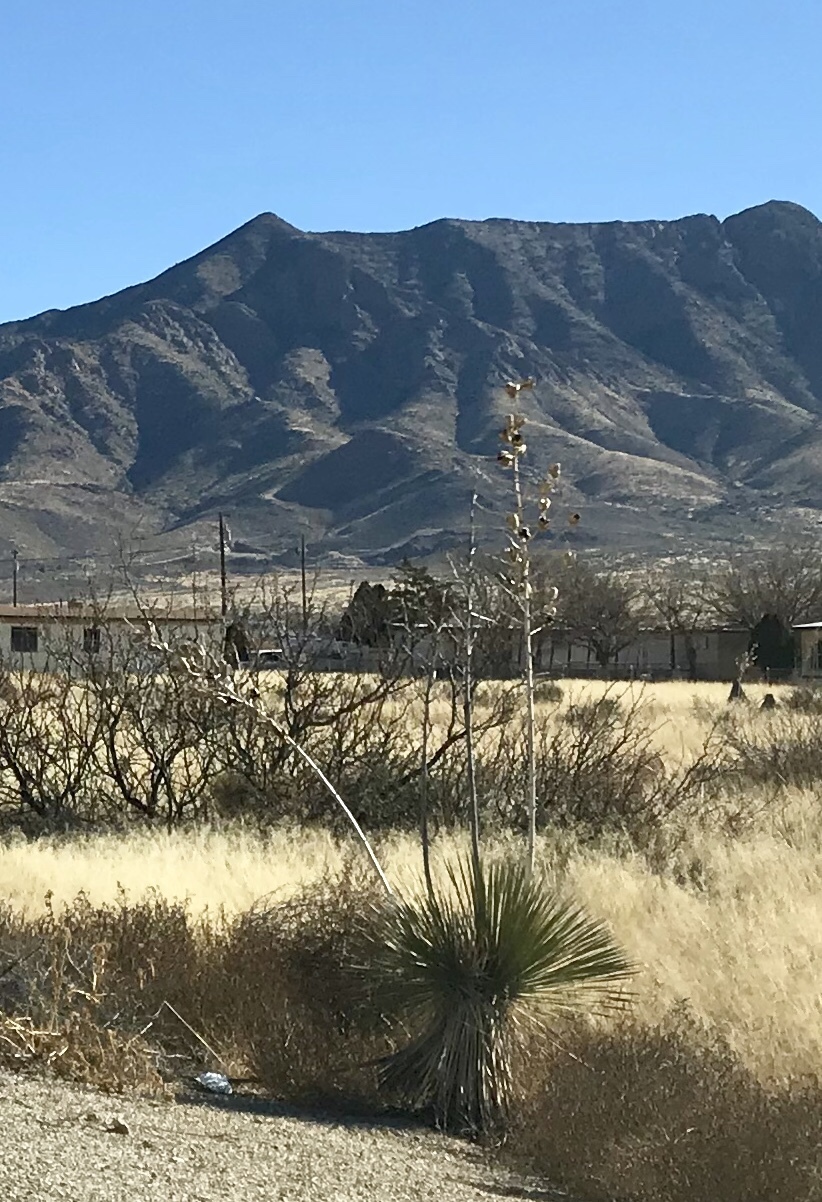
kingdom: Plantae
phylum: Tracheophyta
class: Liliopsida
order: Asparagales
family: Asparagaceae
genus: Yucca
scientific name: Yucca elata
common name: Palmella
